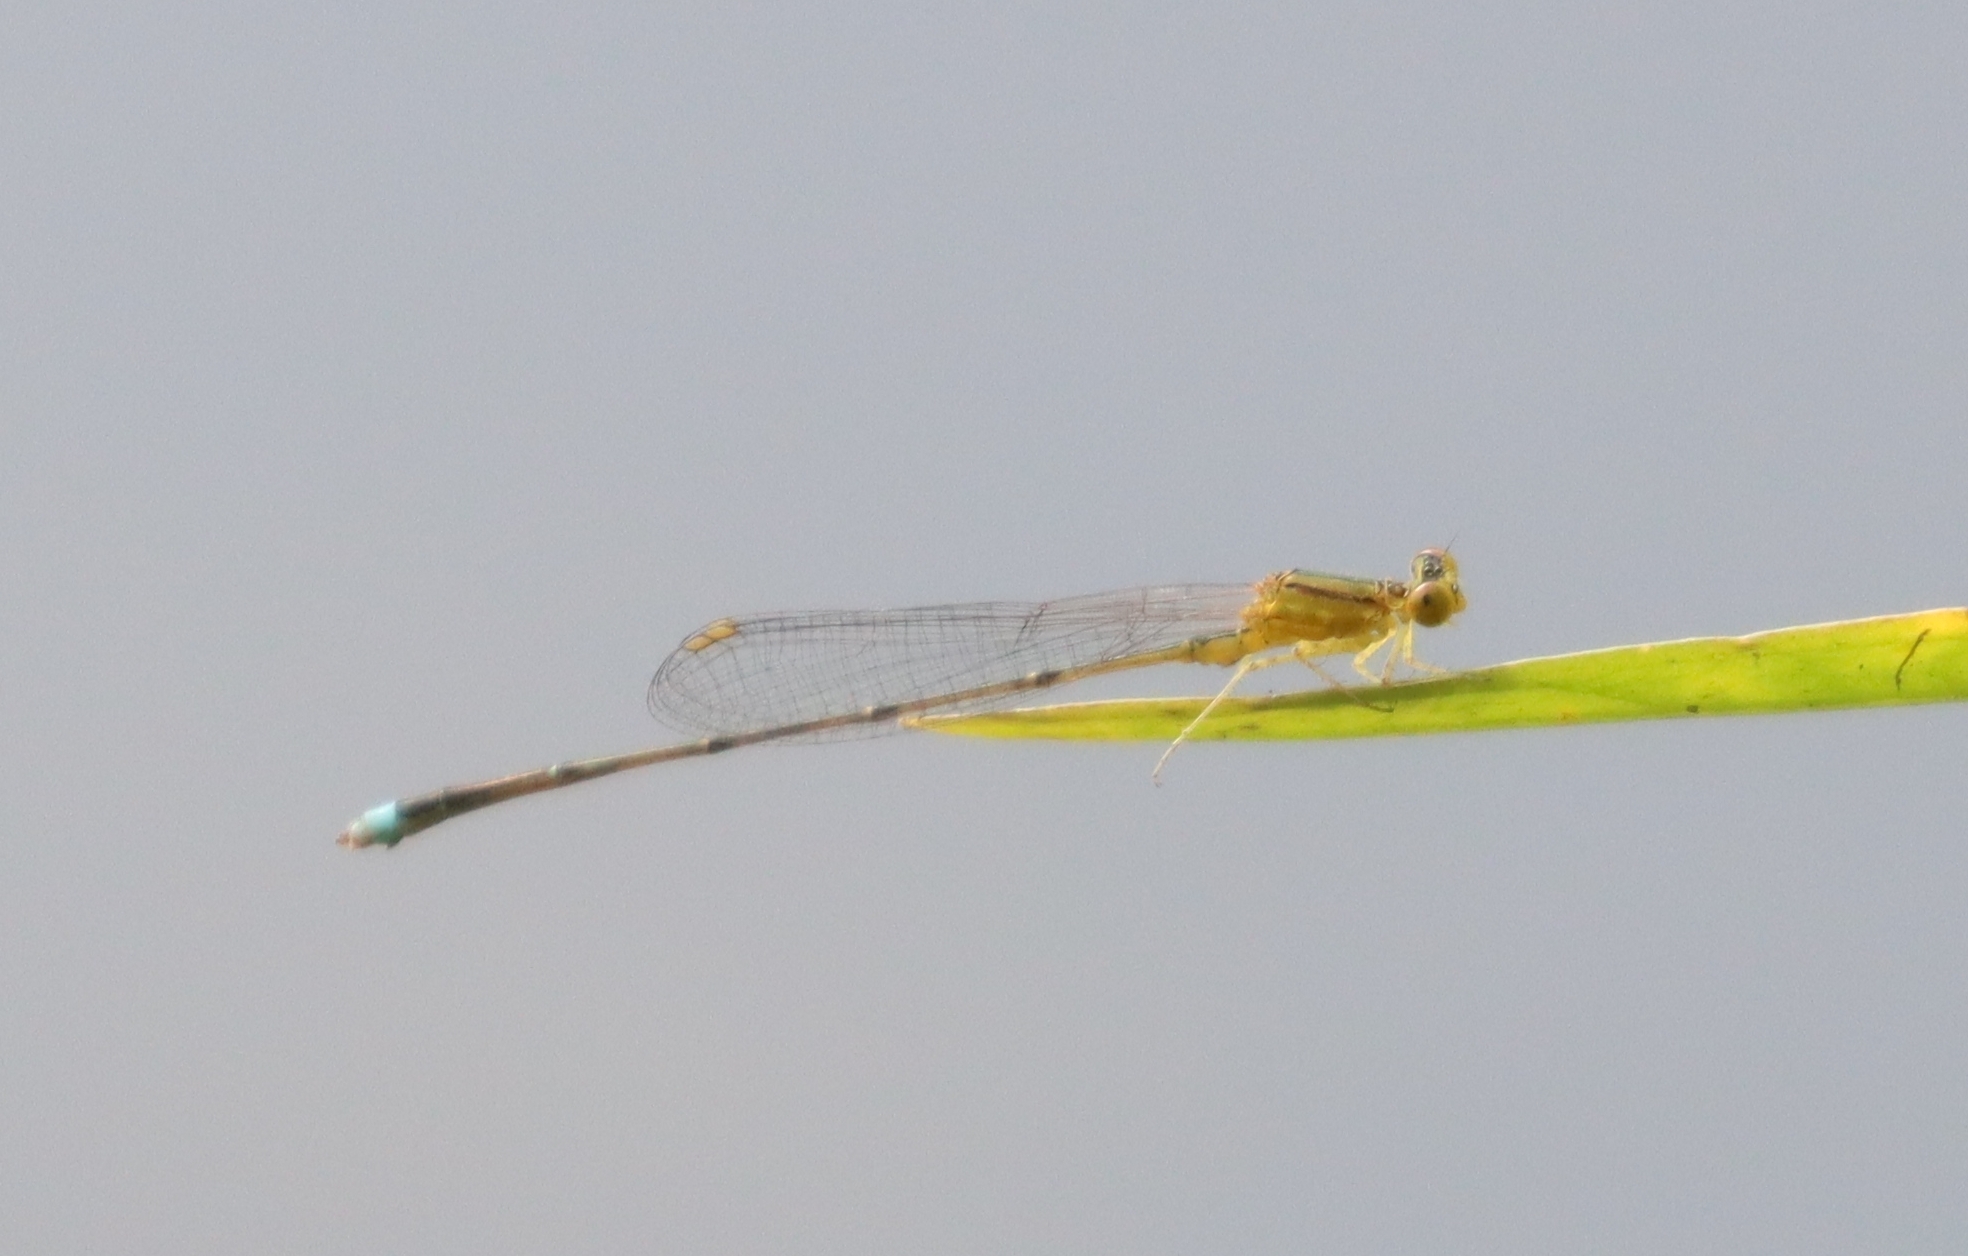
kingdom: Animalia
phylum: Arthropoda
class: Insecta
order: Odonata
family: Coenagrionidae
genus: Enallagma
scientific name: Enallagma vesperum
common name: Vesper bluet
